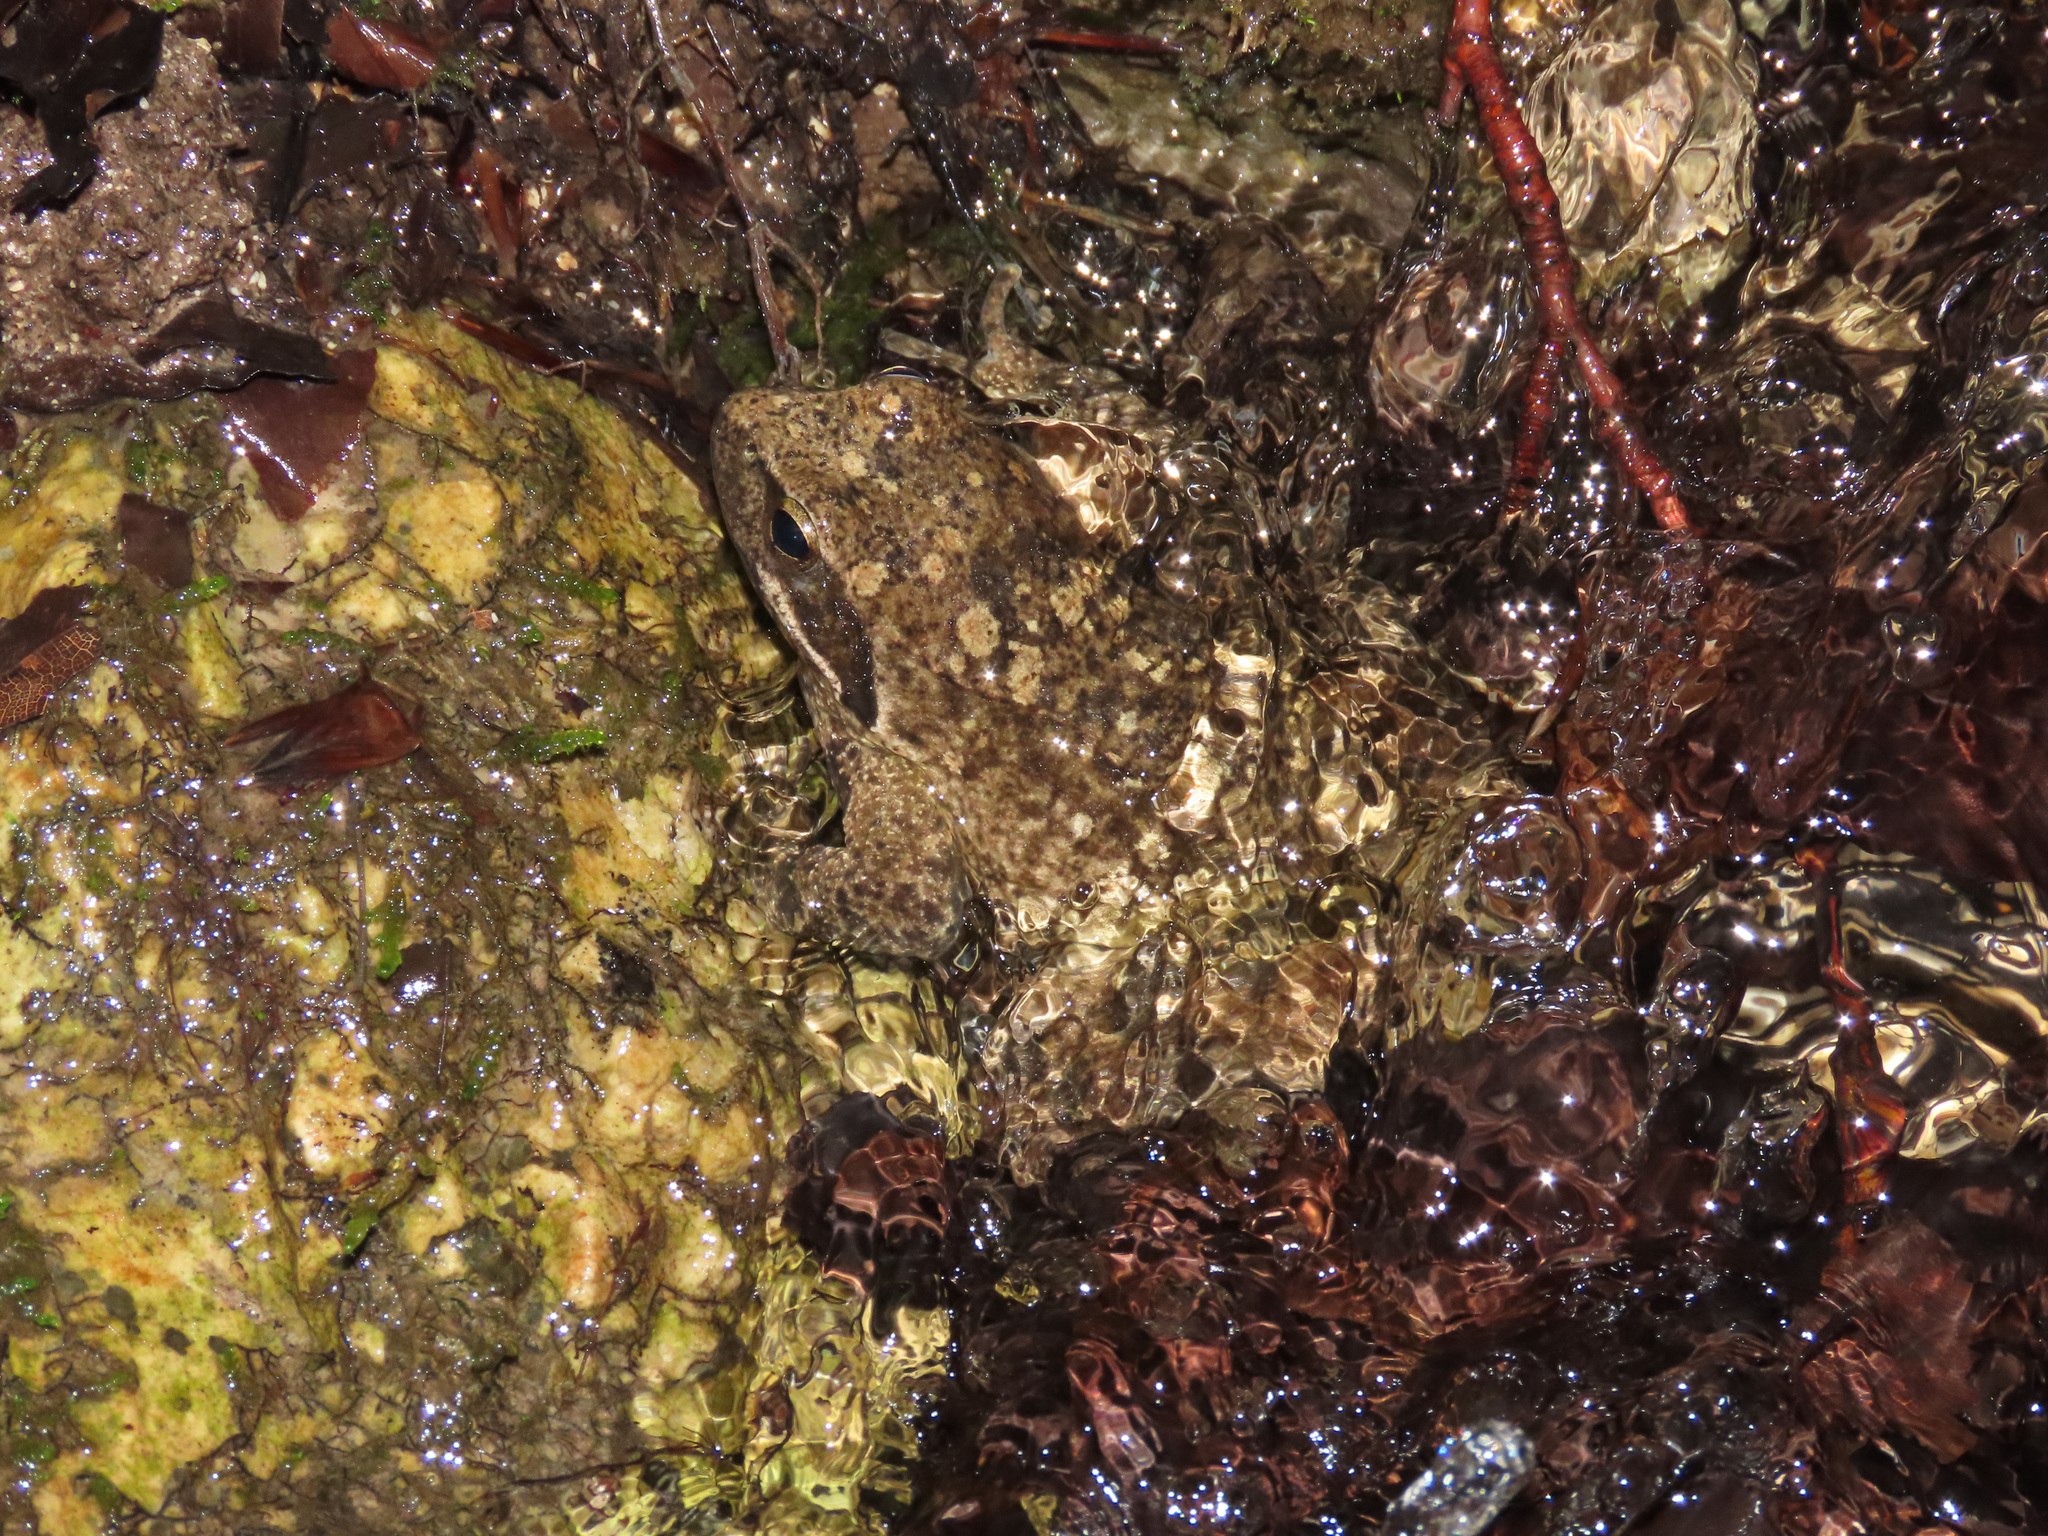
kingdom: Animalia
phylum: Chordata
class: Amphibia
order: Anura
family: Ranidae
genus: Rana
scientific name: Rana italica
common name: Italian stream frog
